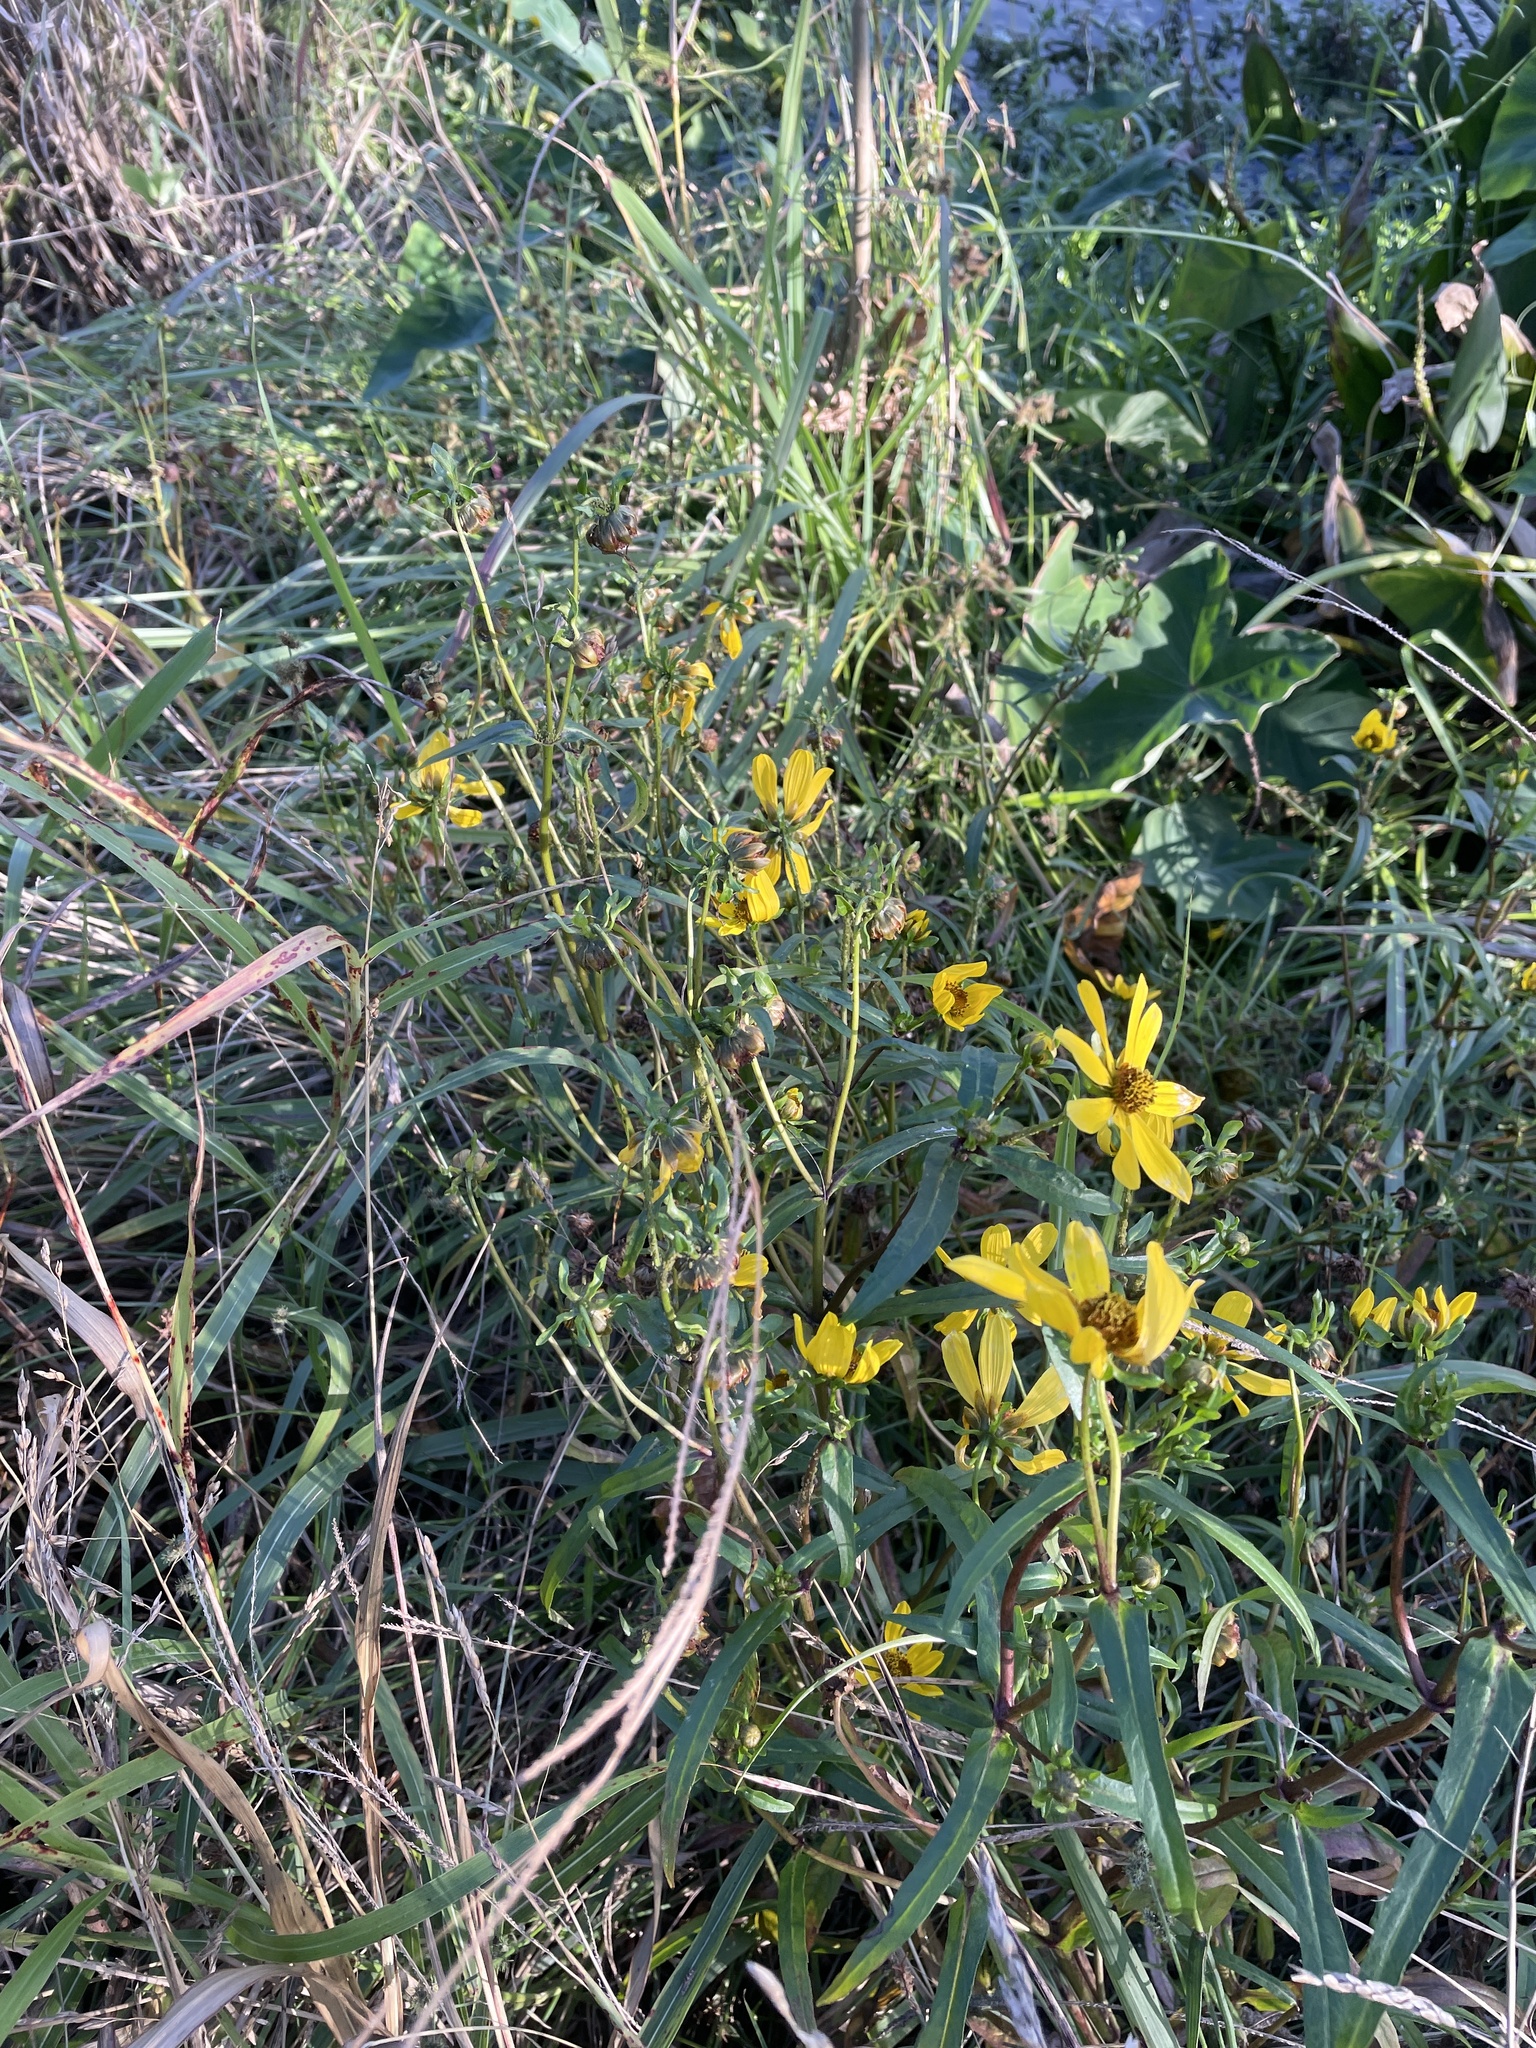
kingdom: Plantae
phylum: Tracheophyta
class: Magnoliopsida
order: Asterales
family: Asteraceae
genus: Bidens
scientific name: Bidens laevis
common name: Larger bur-marigold
